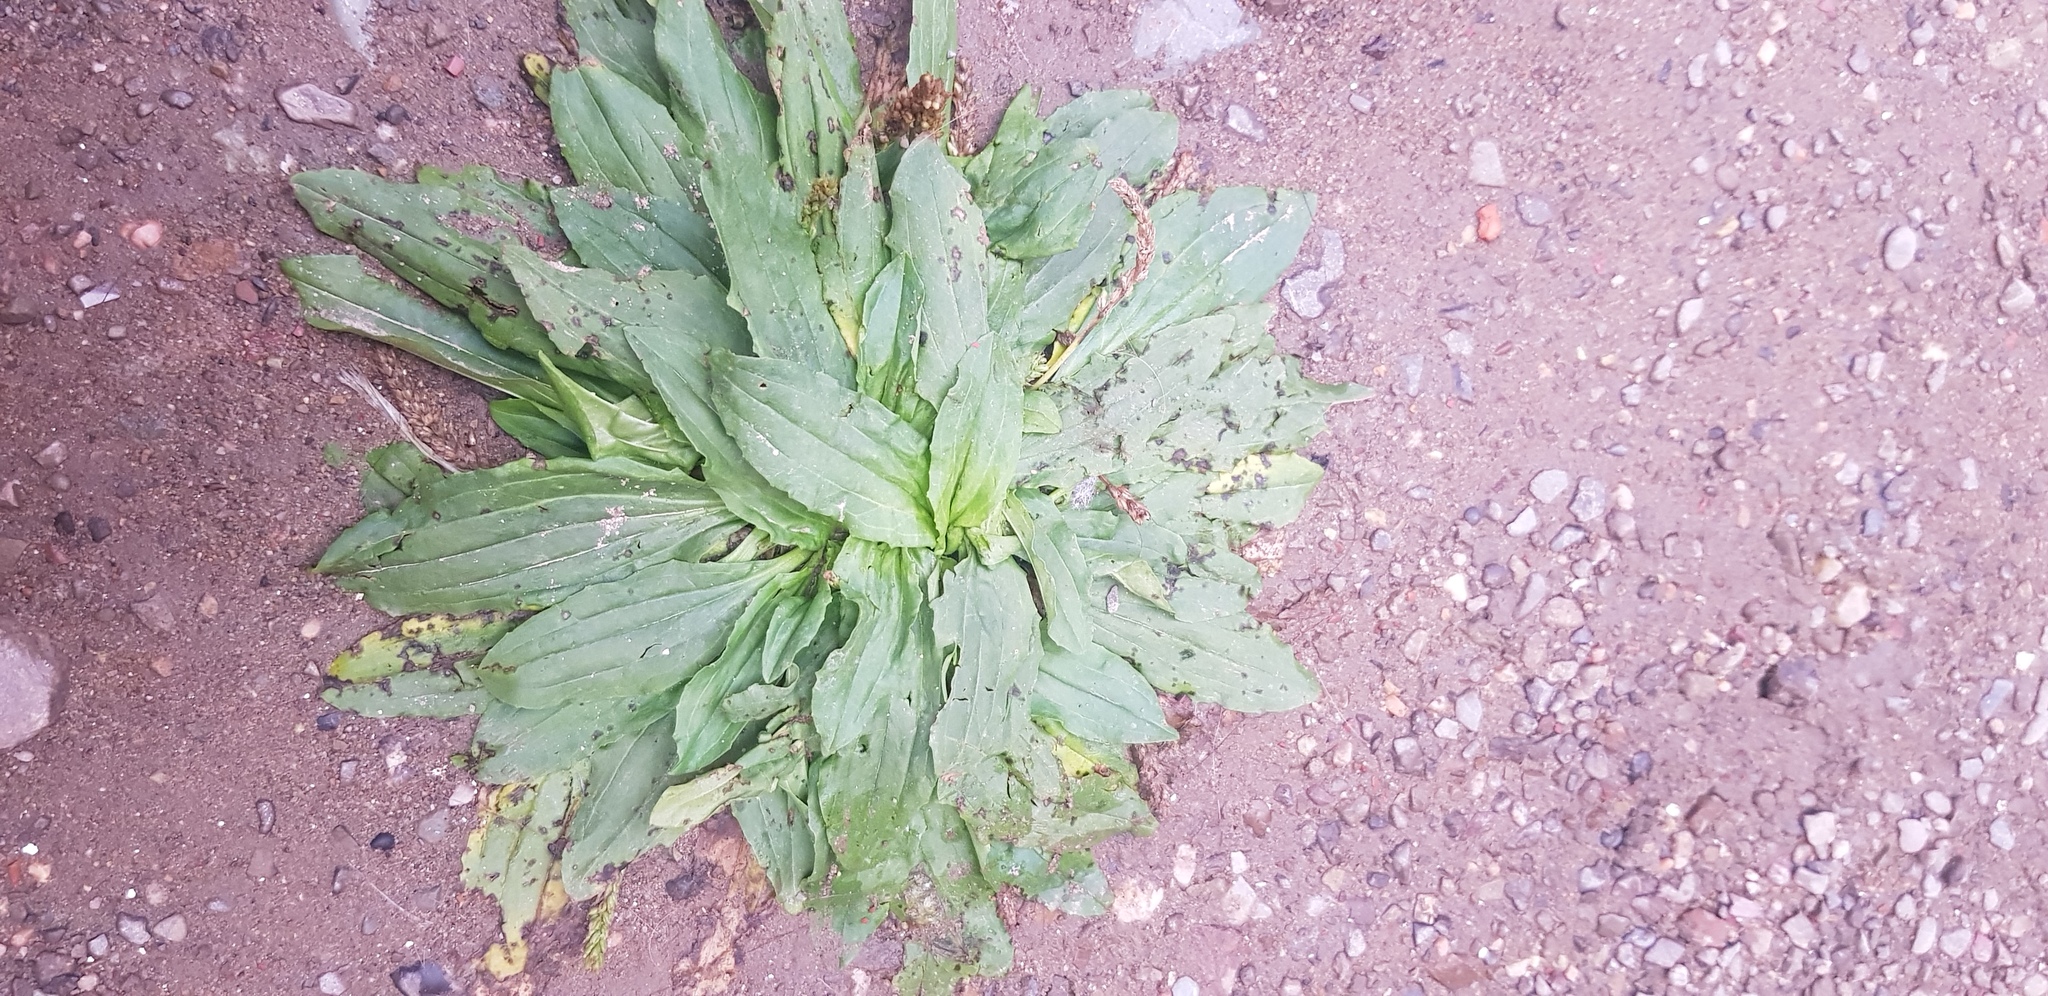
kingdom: Plantae
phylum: Tracheophyta
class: Magnoliopsida
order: Lamiales
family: Plantaginaceae
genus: Plantago
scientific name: Plantago depressa
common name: Depressed plantain
